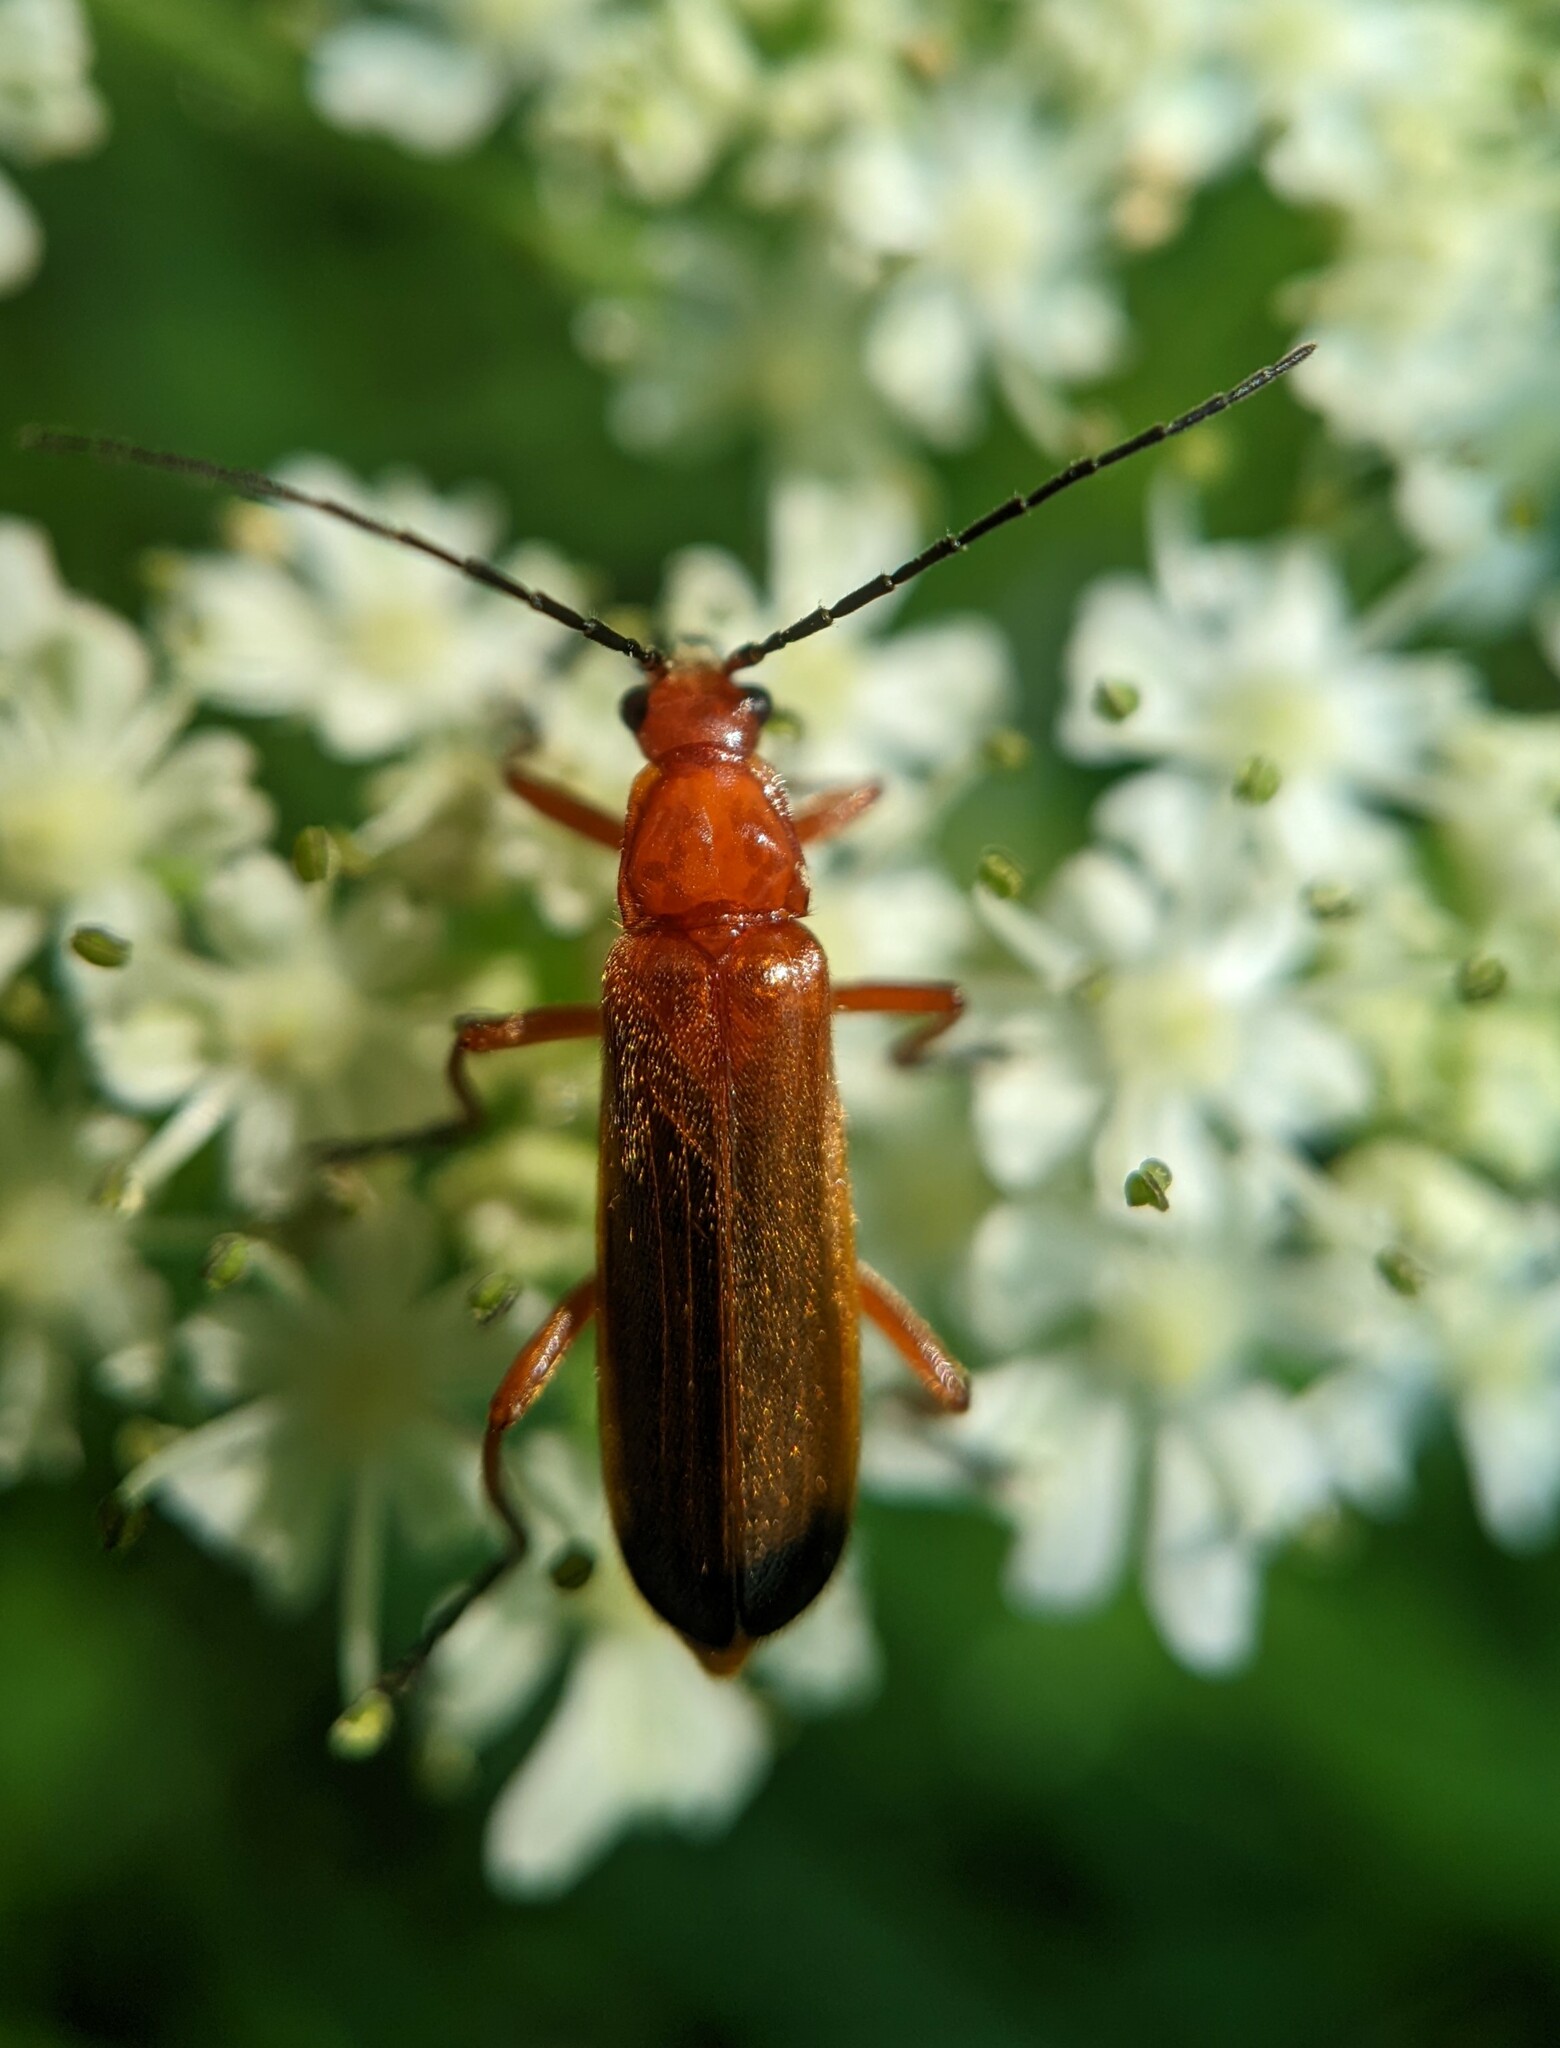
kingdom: Animalia
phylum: Arthropoda
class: Insecta
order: Coleoptera
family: Cantharidae
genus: Rhagonycha
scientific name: Rhagonycha fulva
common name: Common red soldier beetle
